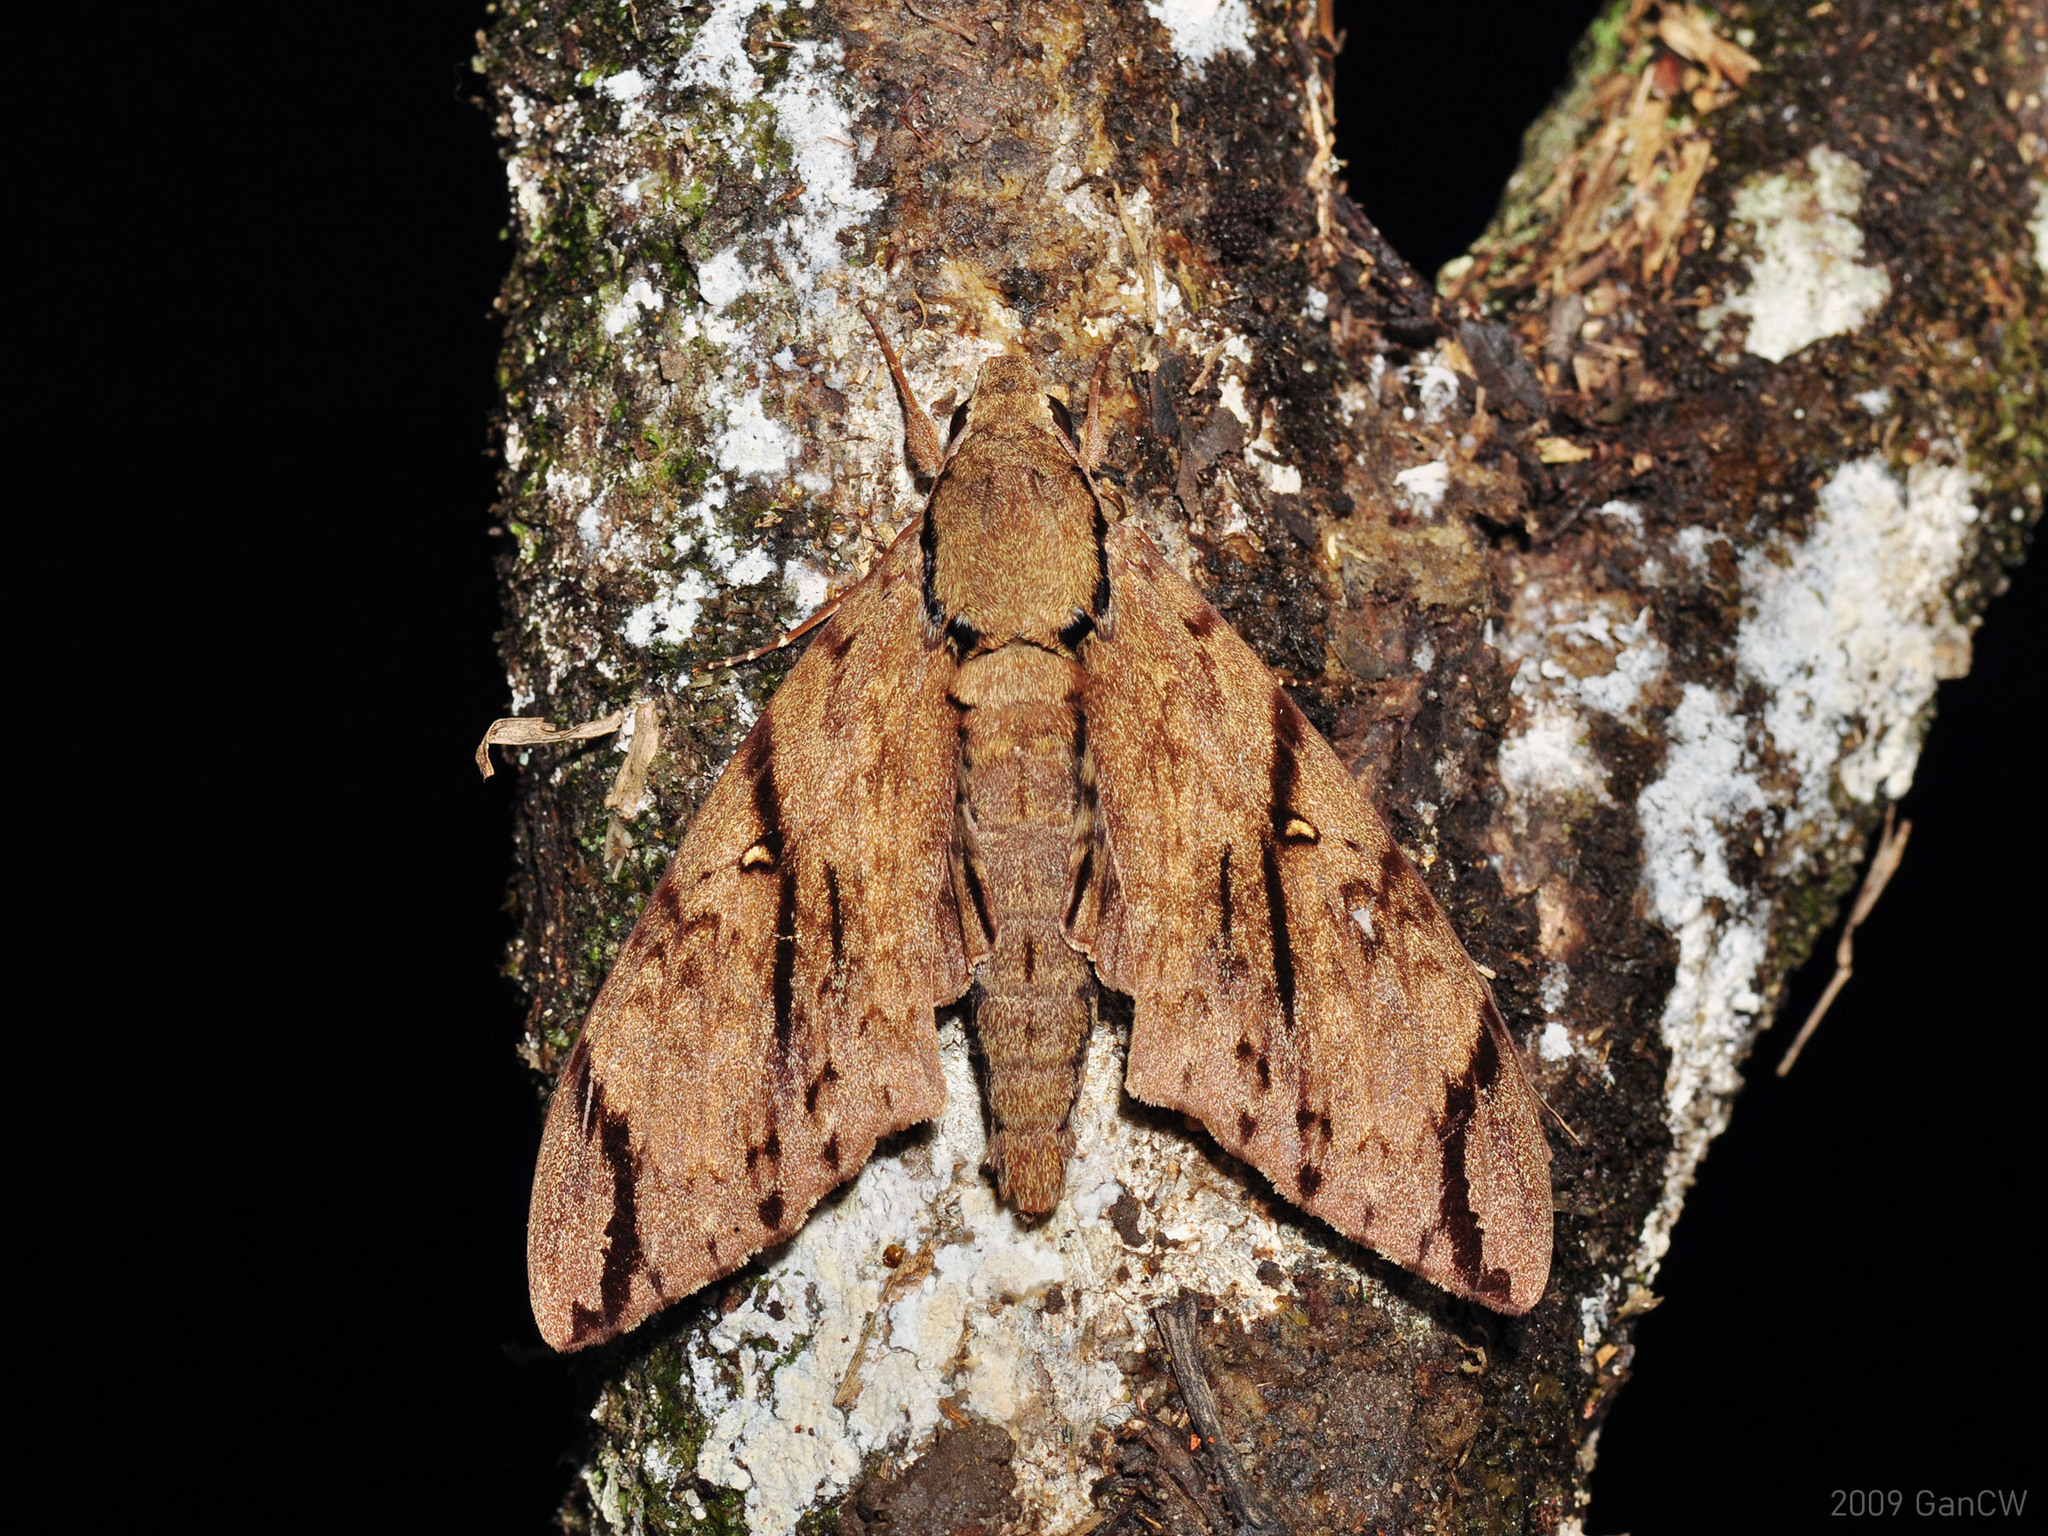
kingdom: Animalia
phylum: Arthropoda
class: Insecta
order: Lepidoptera
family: Sphingidae
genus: Cerberonoton
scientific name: Cerberonoton rubescens
